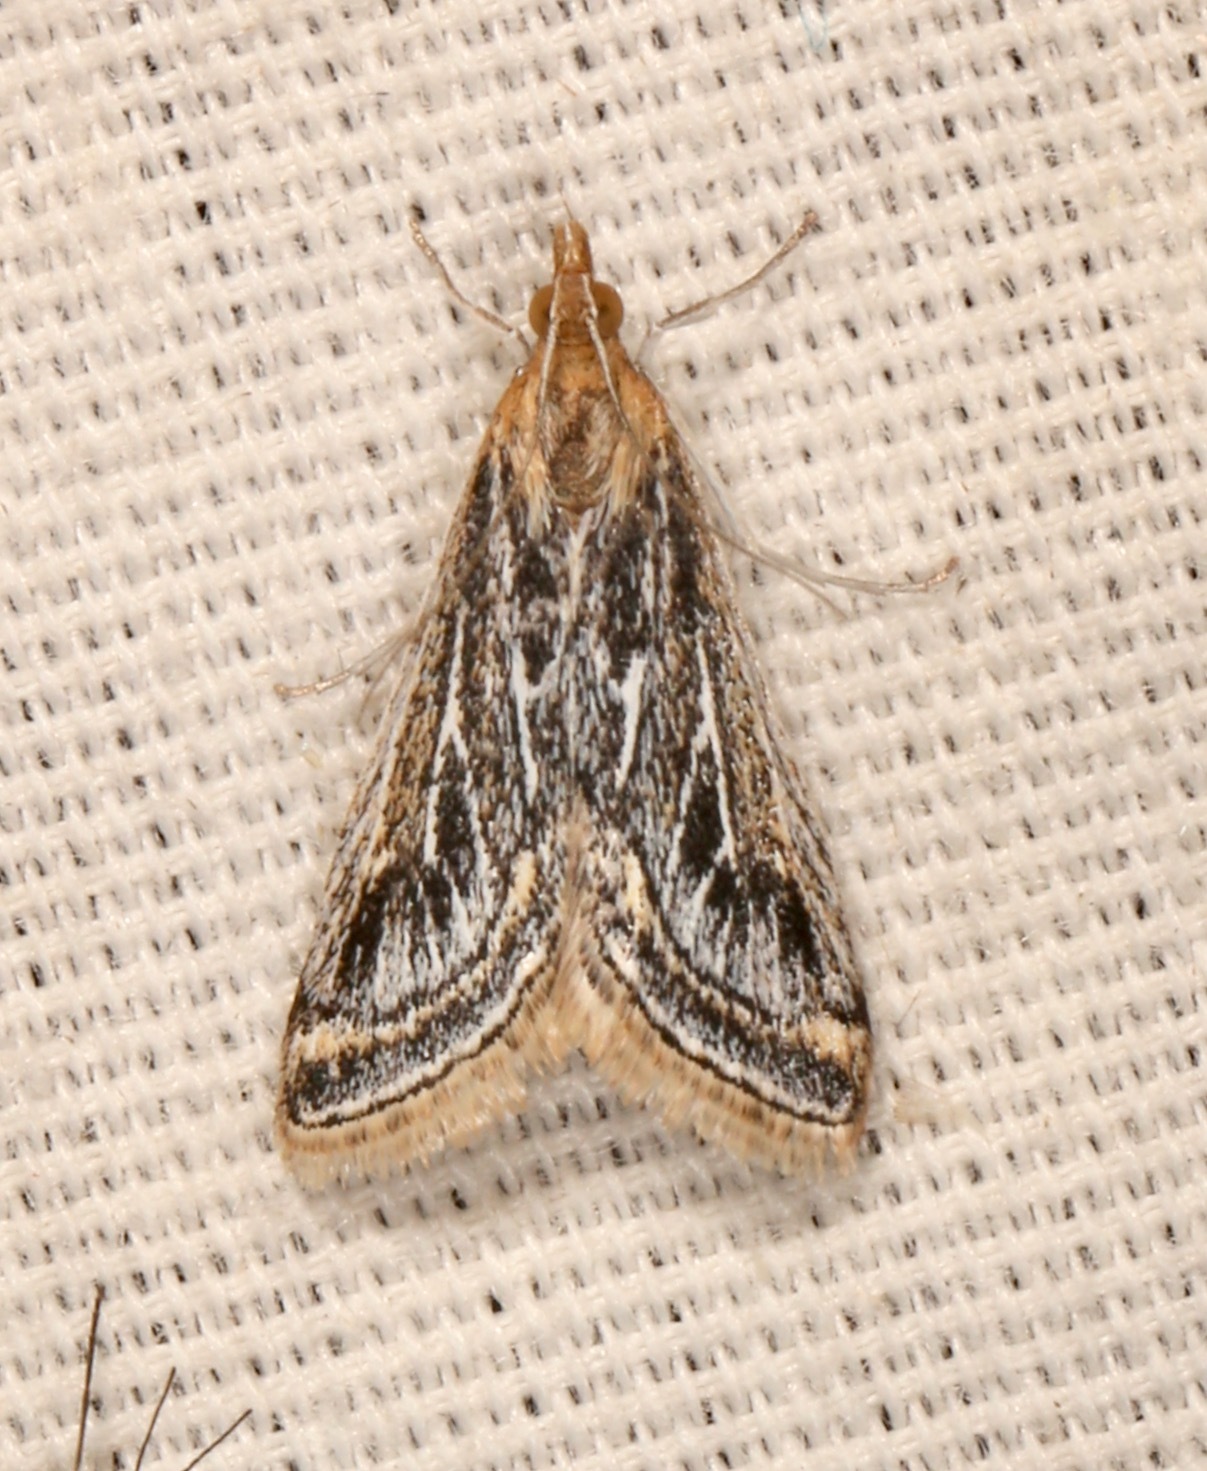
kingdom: Animalia
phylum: Arthropoda
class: Insecta
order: Lepidoptera
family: Crambidae
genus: Pyrausta
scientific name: Pyrausta linealis
